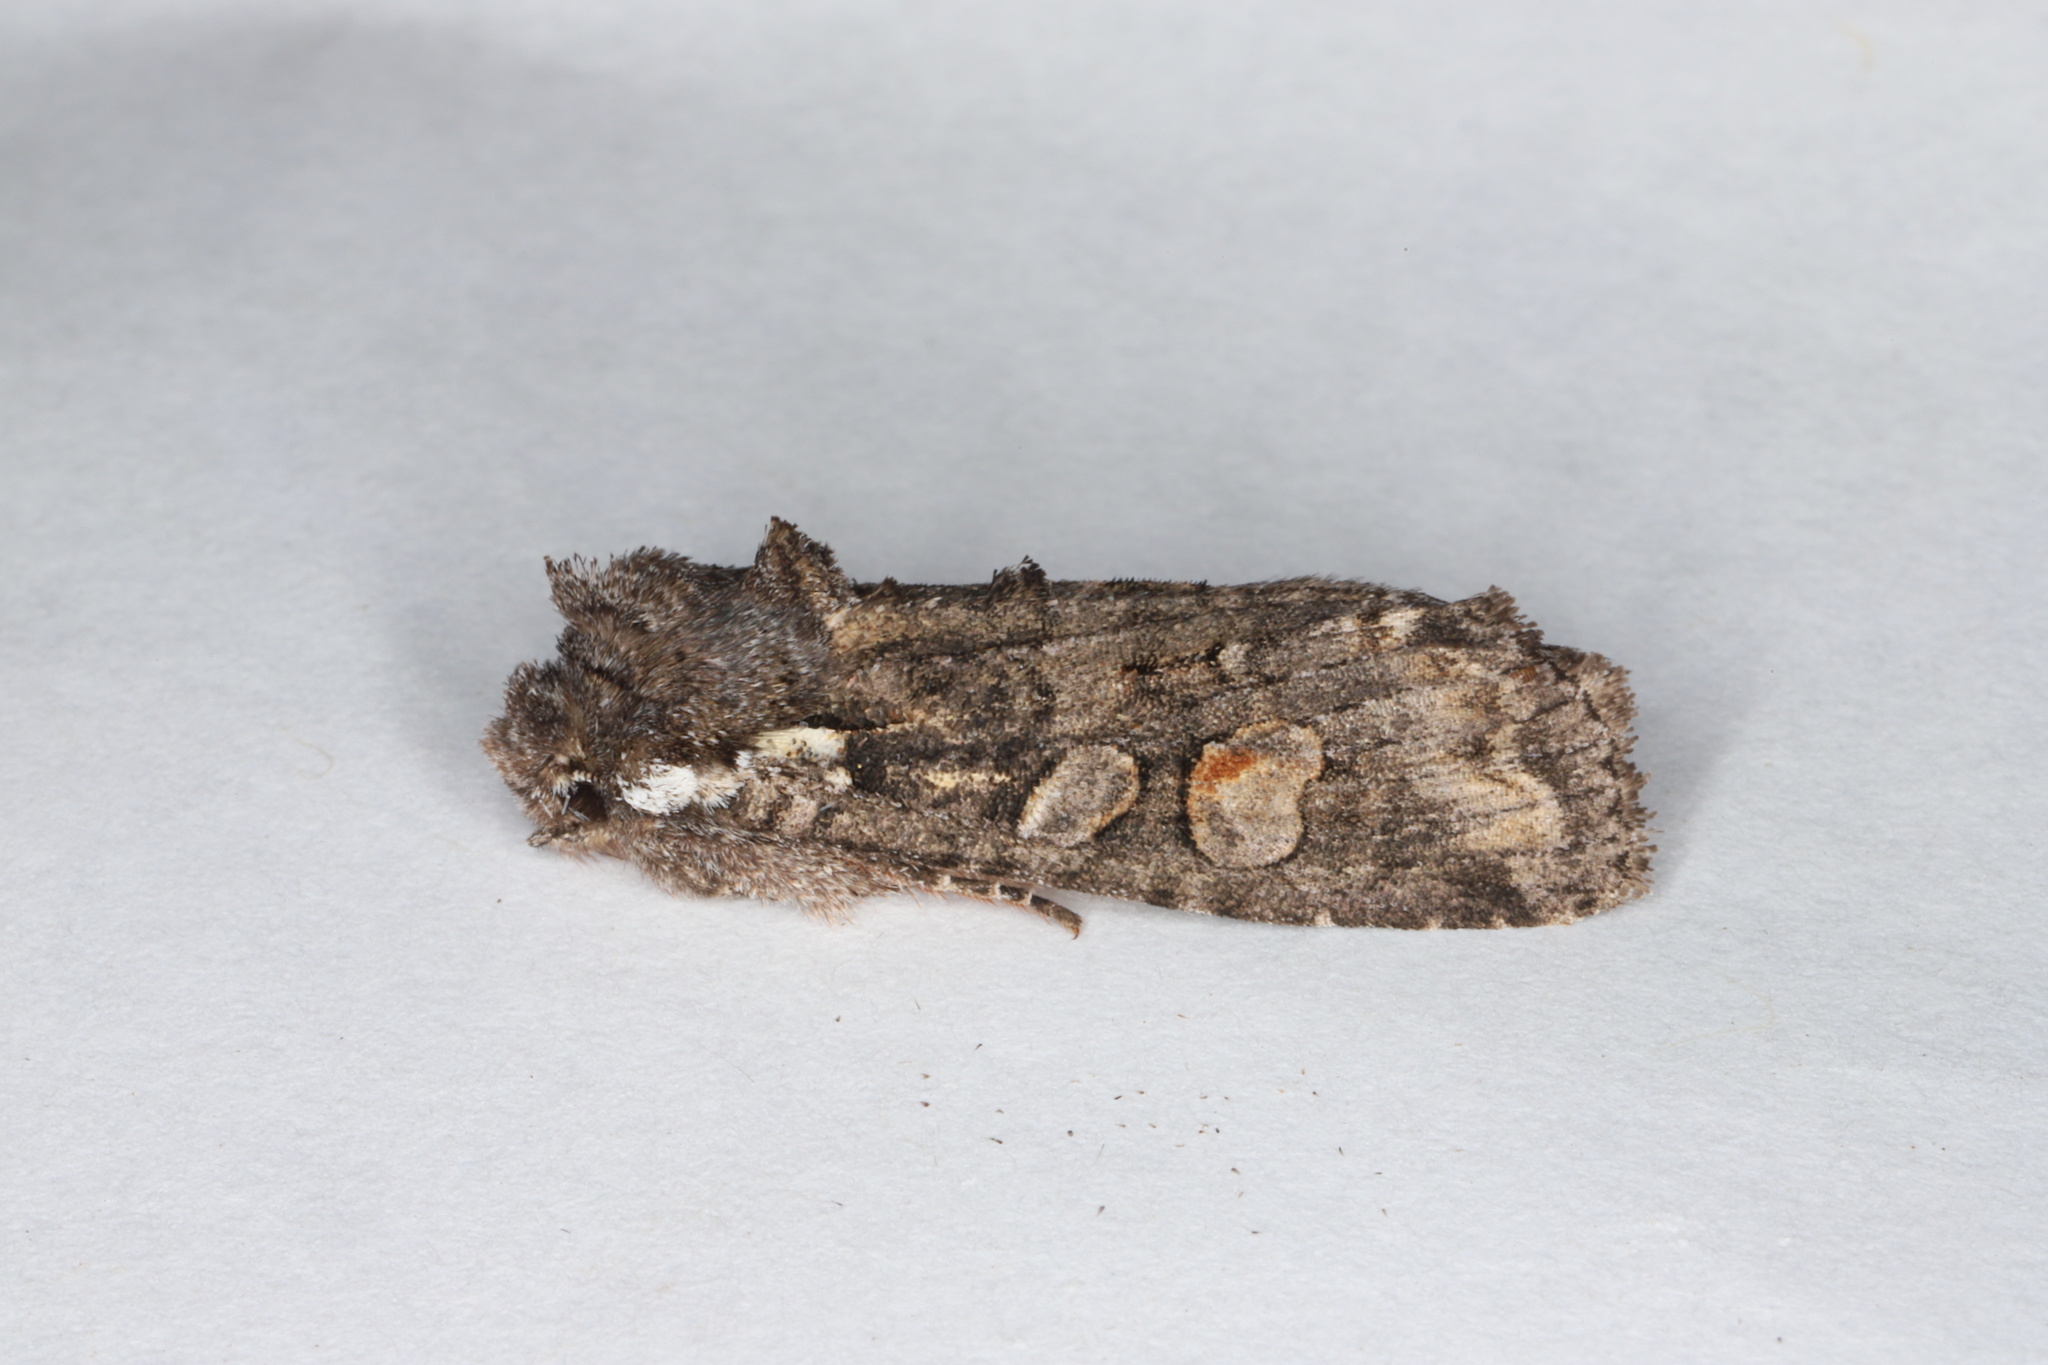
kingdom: Animalia
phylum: Arthropoda
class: Insecta
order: Lepidoptera
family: Noctuidae
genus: Lithophane
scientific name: Lithophane pexata
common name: Plush-naped pinion moth
